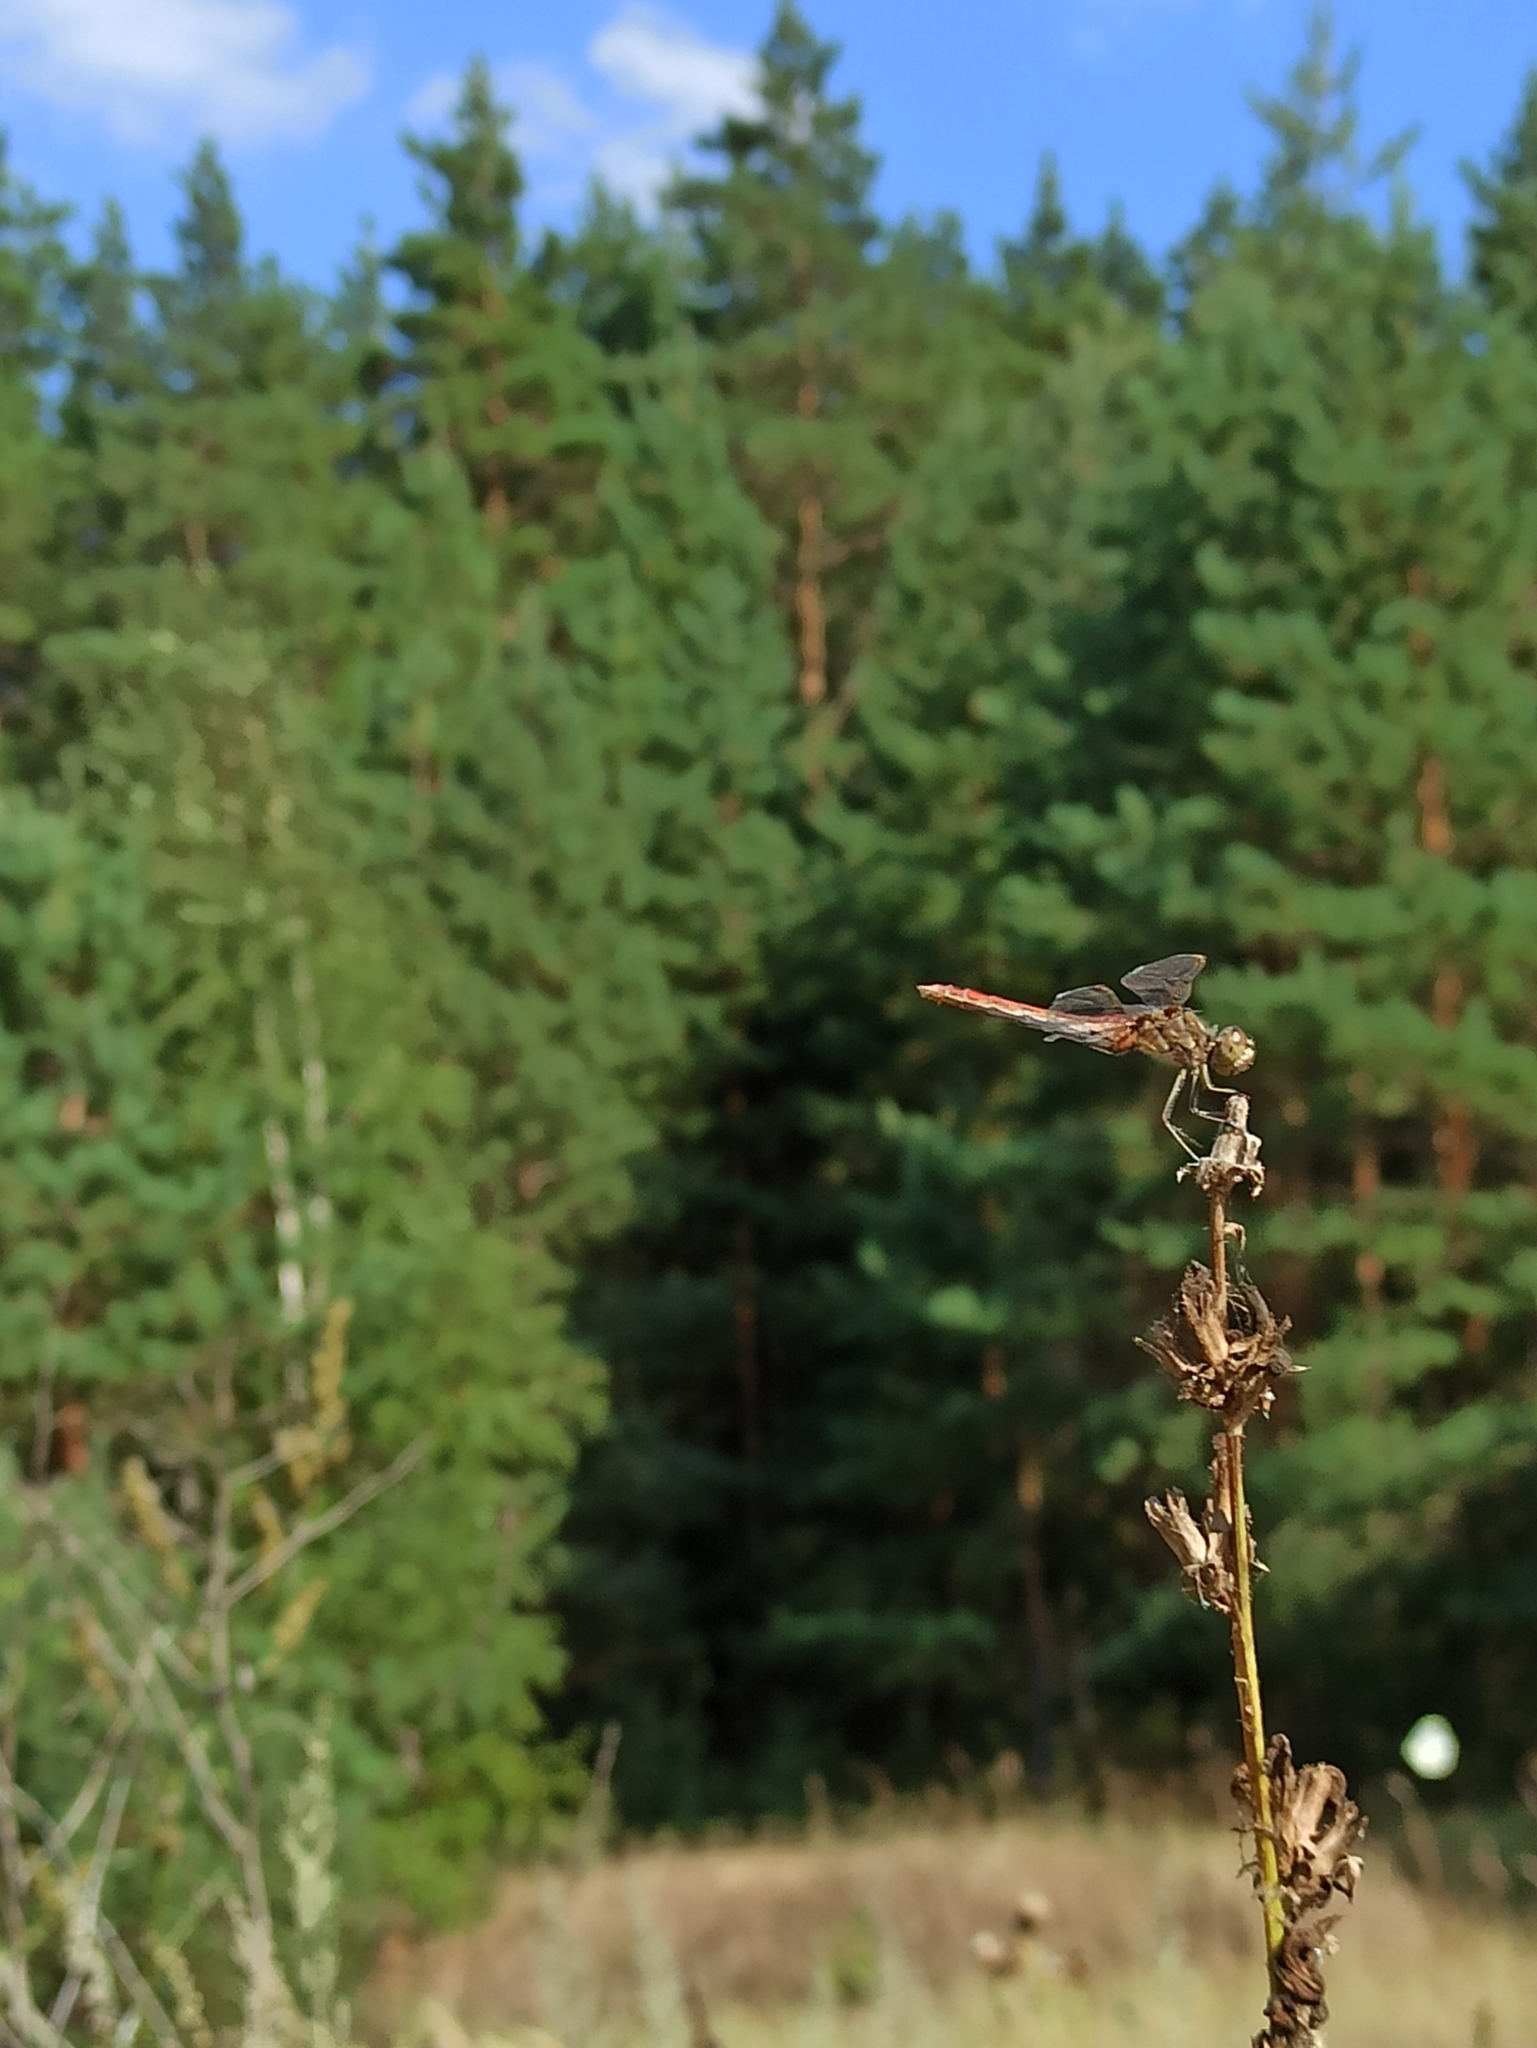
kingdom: Animalia
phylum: Arthropoda
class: Insecta
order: Odonata
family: Libellulidae
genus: Sympetrum
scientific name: Sympetrum vulgatum
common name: Vagrant darter
